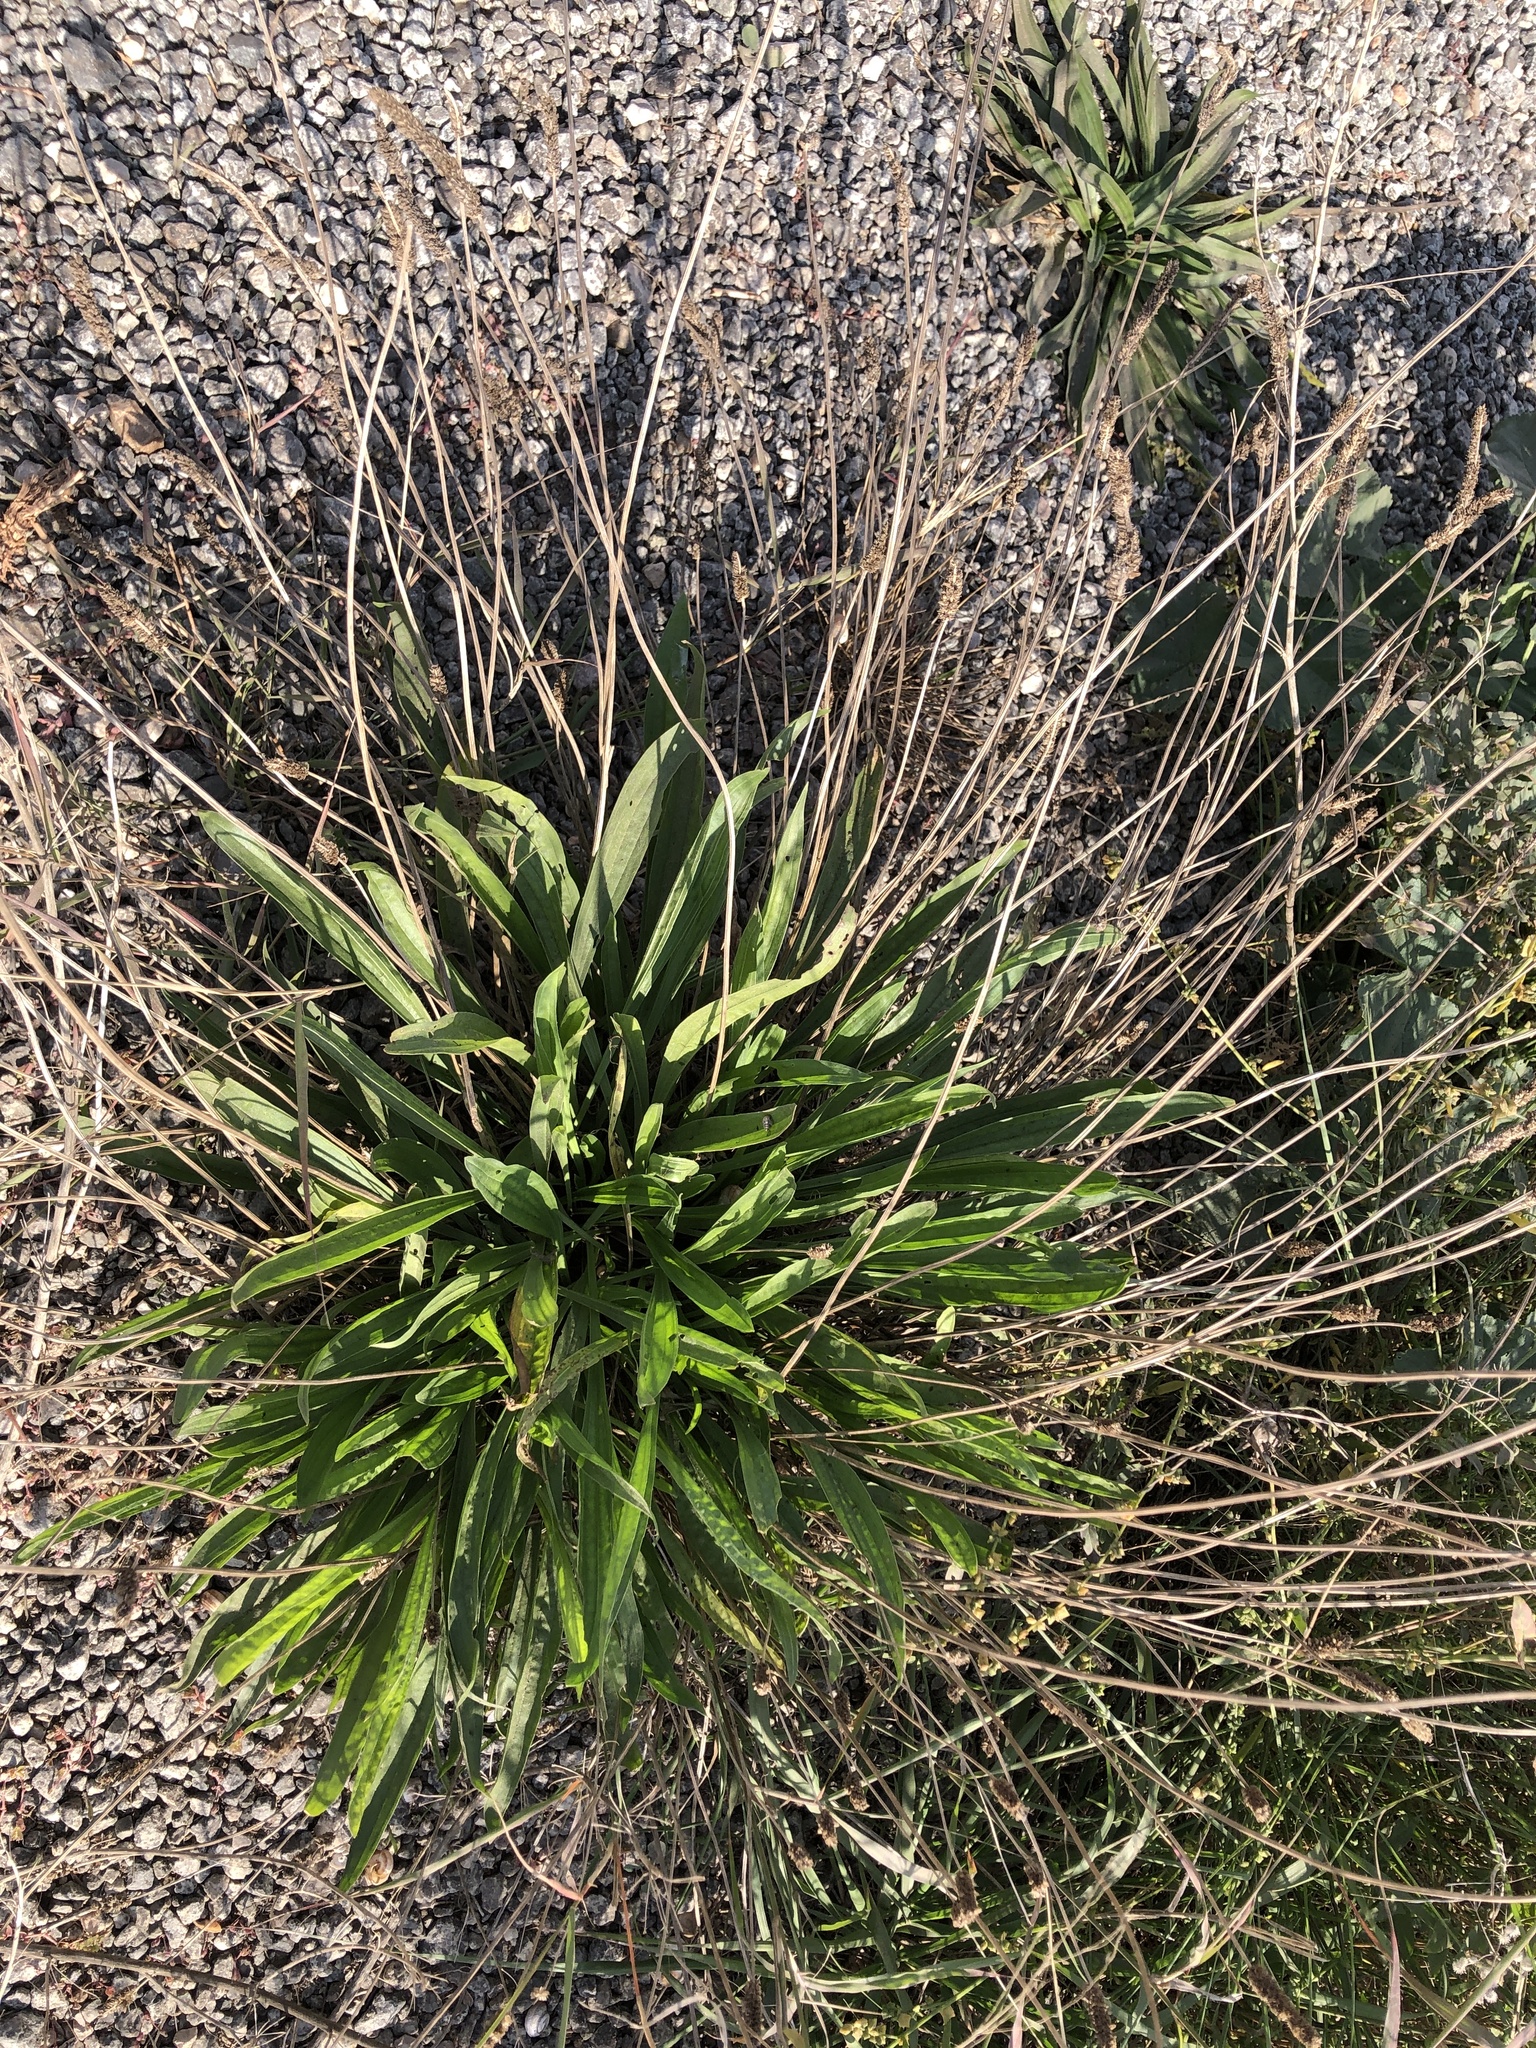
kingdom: Plantae
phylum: Tracheophyta
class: Magnoliopsida
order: Lamiales
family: Plantaginaceae
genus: Plantago
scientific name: Plantago lanceolata
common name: Ribwort plantain
